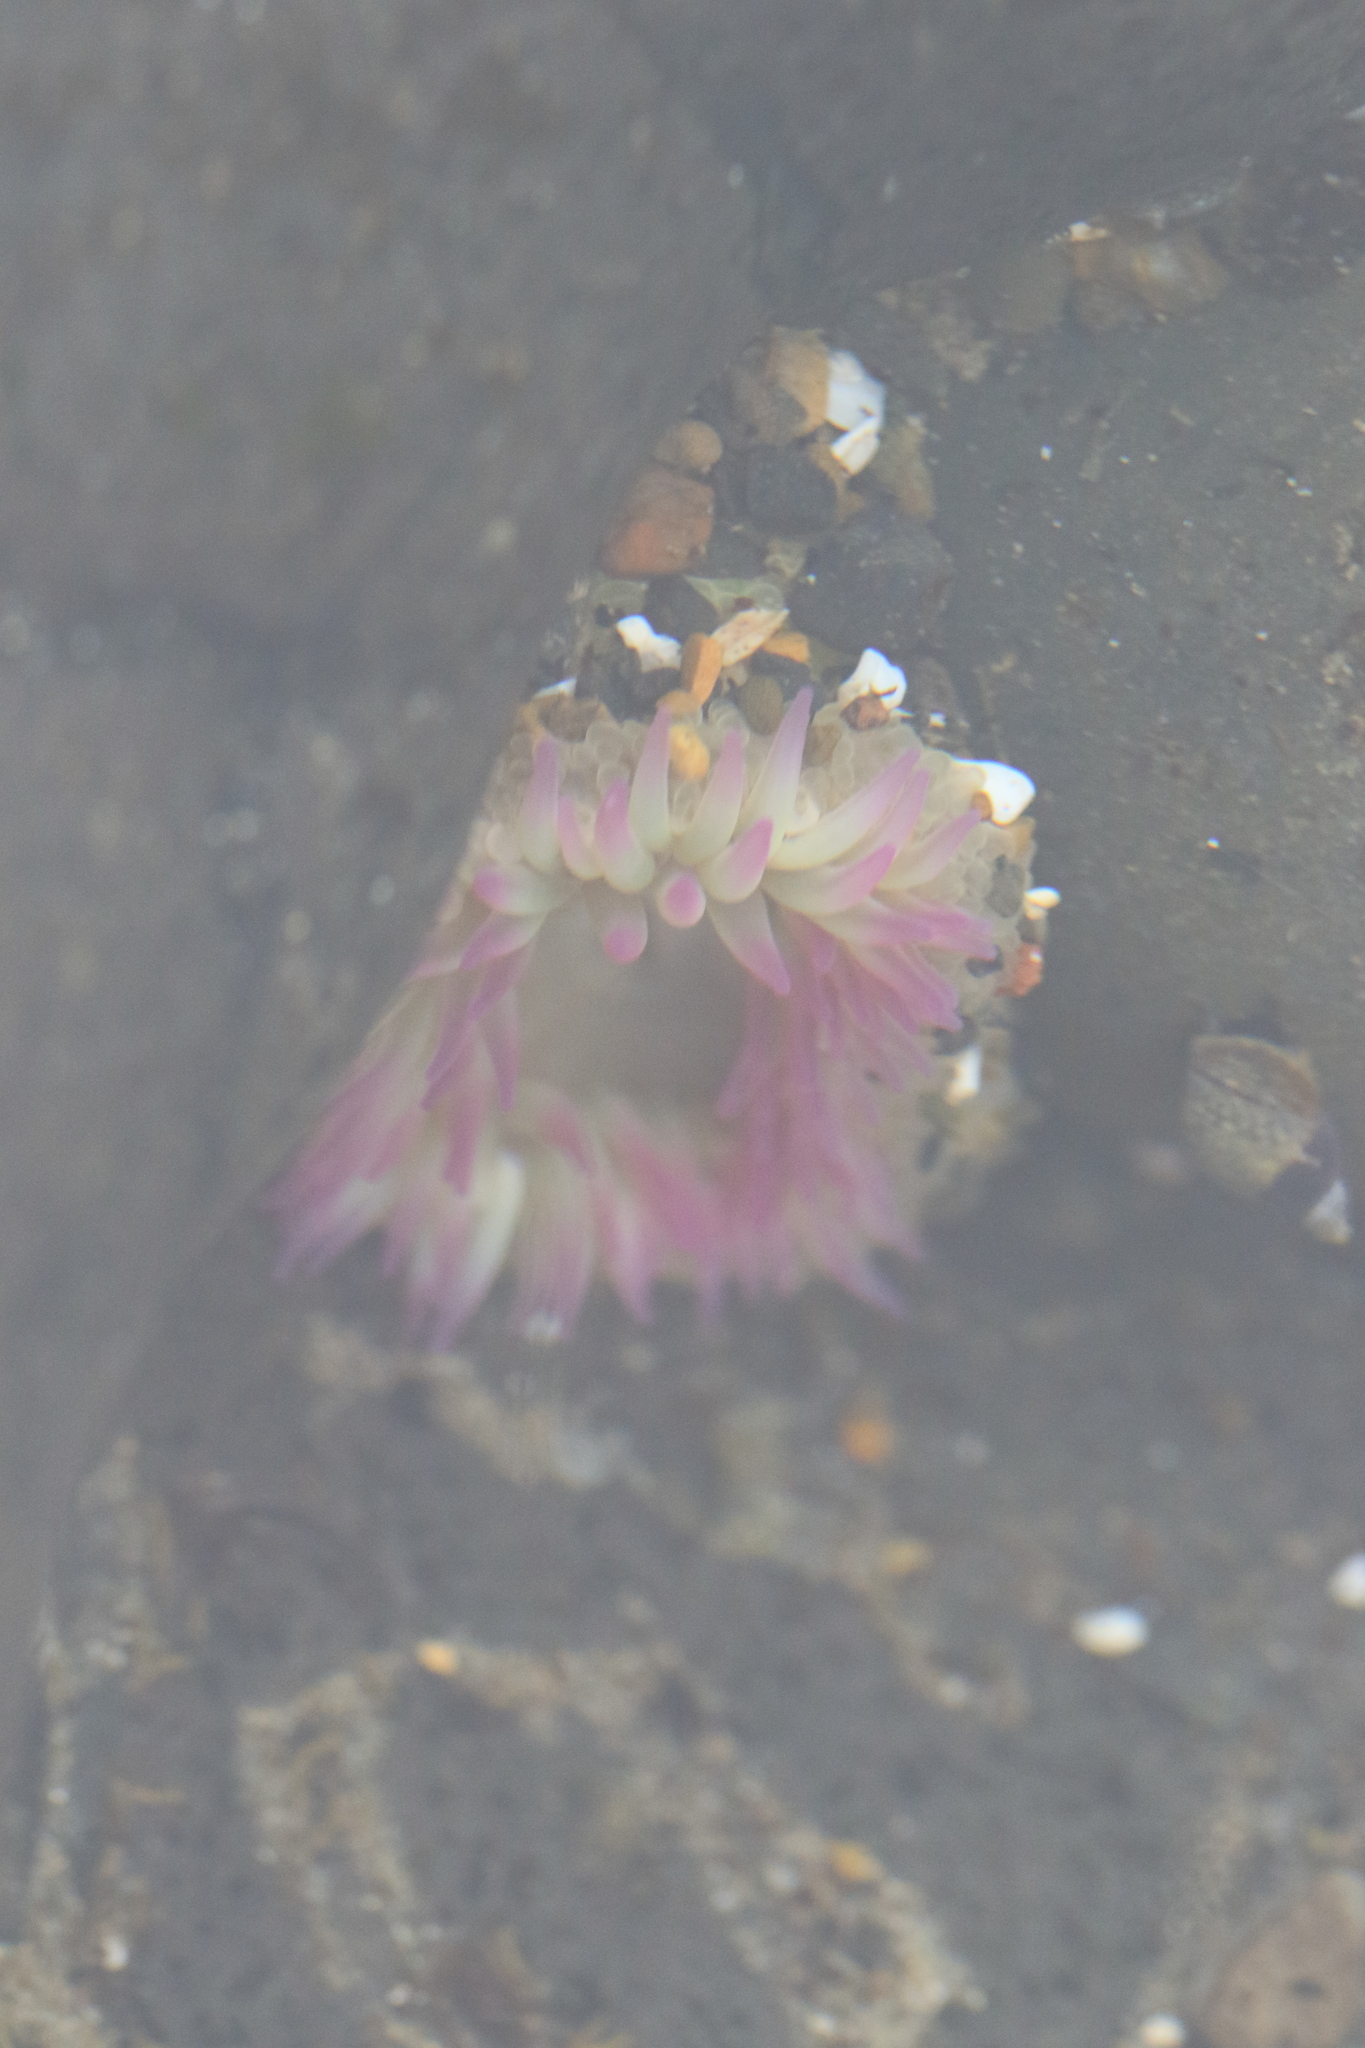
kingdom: Animalia
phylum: Cnidaria
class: Anthozoa
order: Actiniaria
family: Actiniidae
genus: Anthopleura
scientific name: Anthopleura elegantissima
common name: Clonal anemone
